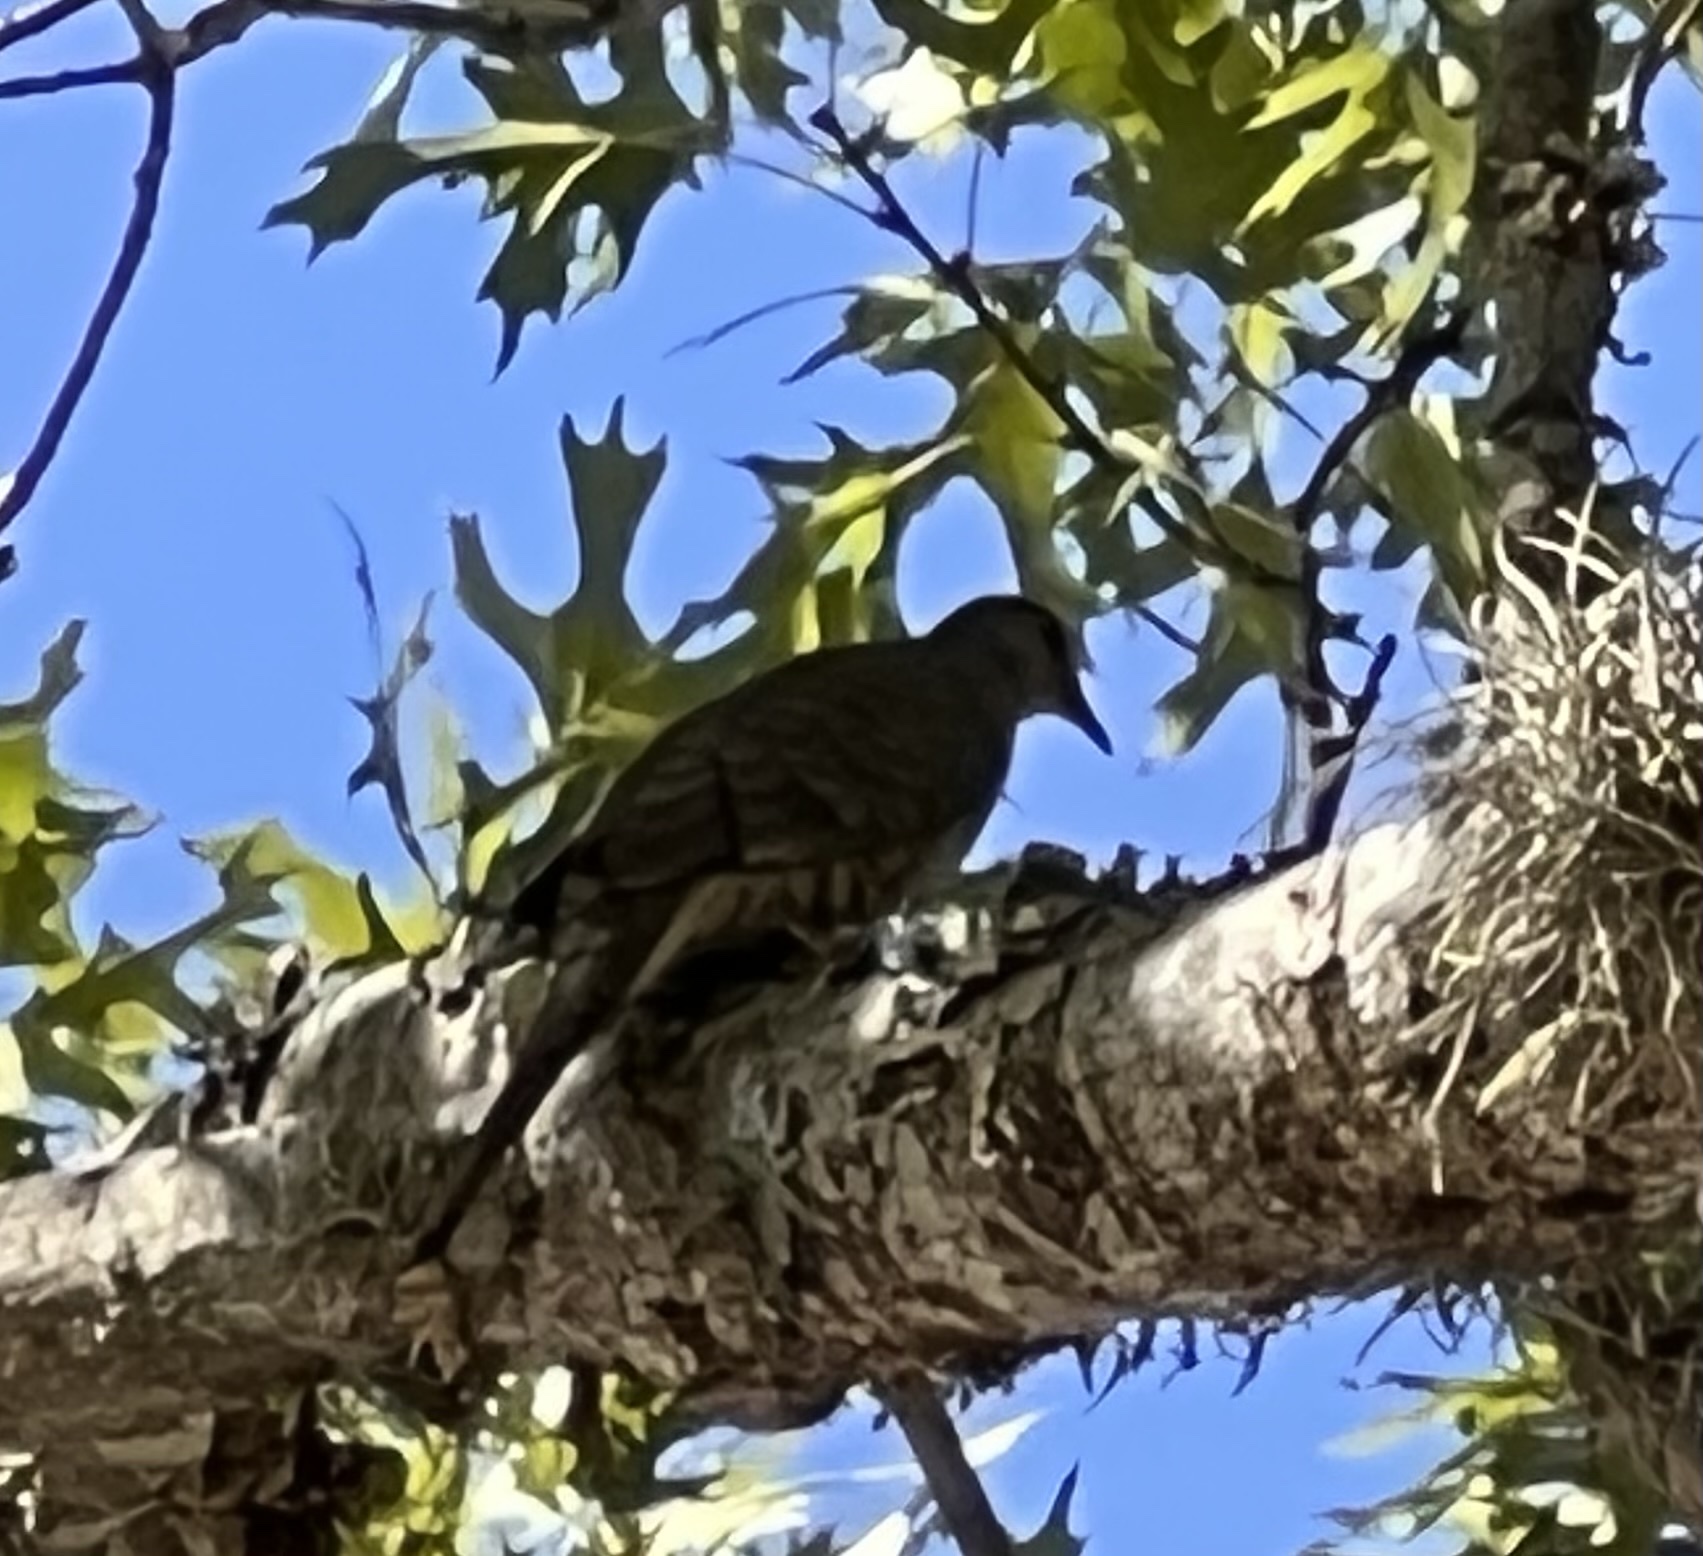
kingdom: Animalia
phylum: Chordata
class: Aves
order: Columbiformes
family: Columbidae
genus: Columbina
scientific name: Columbina inca
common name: Inca dove
